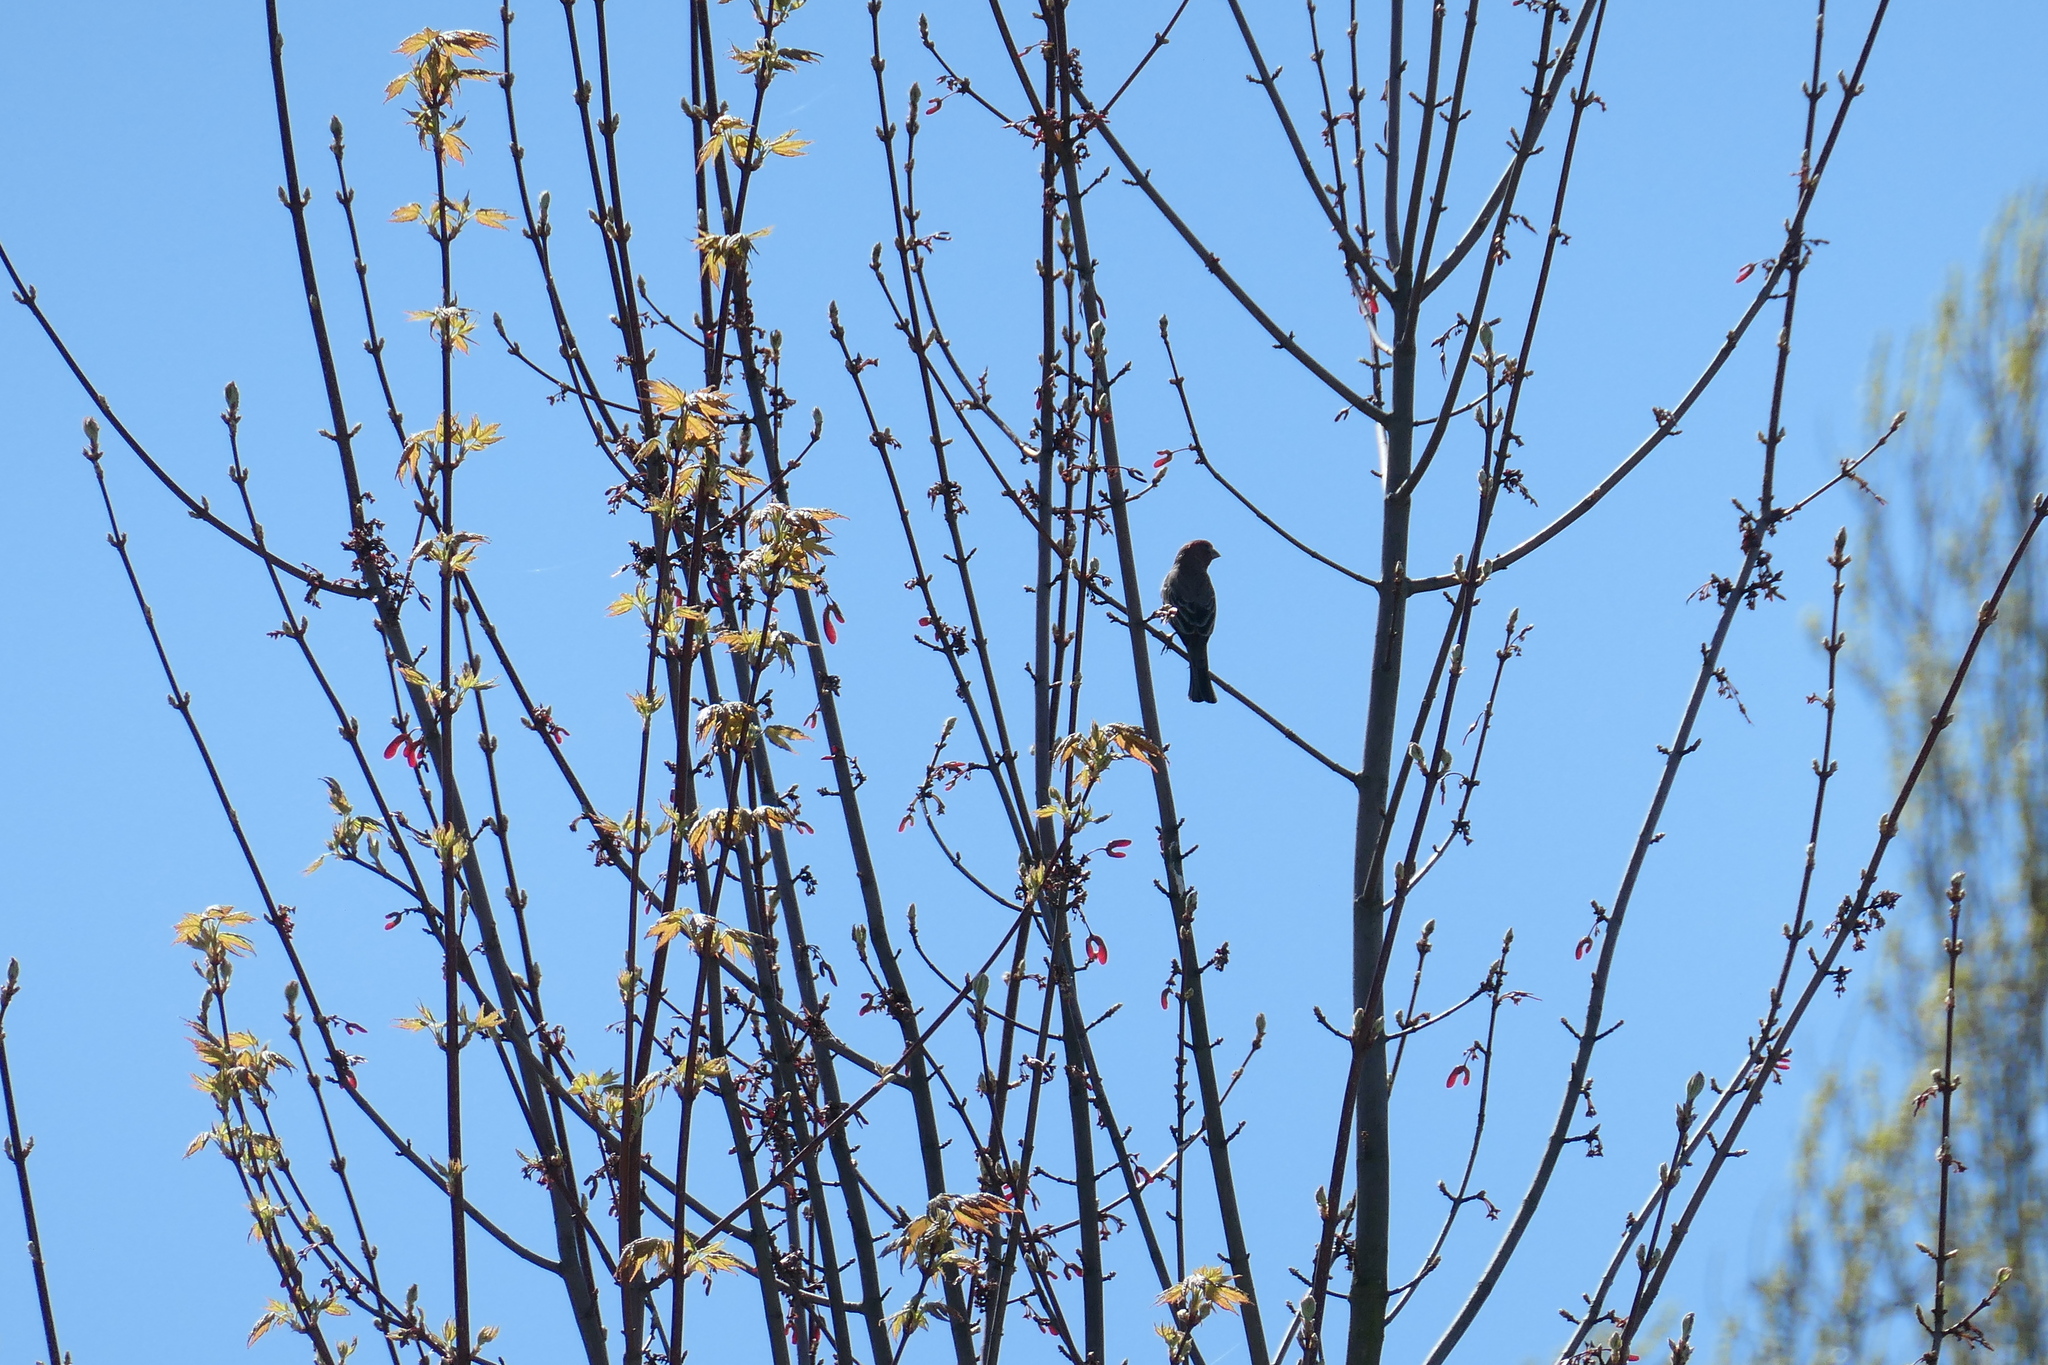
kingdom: Animalia
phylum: Chordata
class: Aves
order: Passeriformes
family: Fringillidae
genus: Haemorhous
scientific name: Haemorhous mexicanus
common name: House finch
